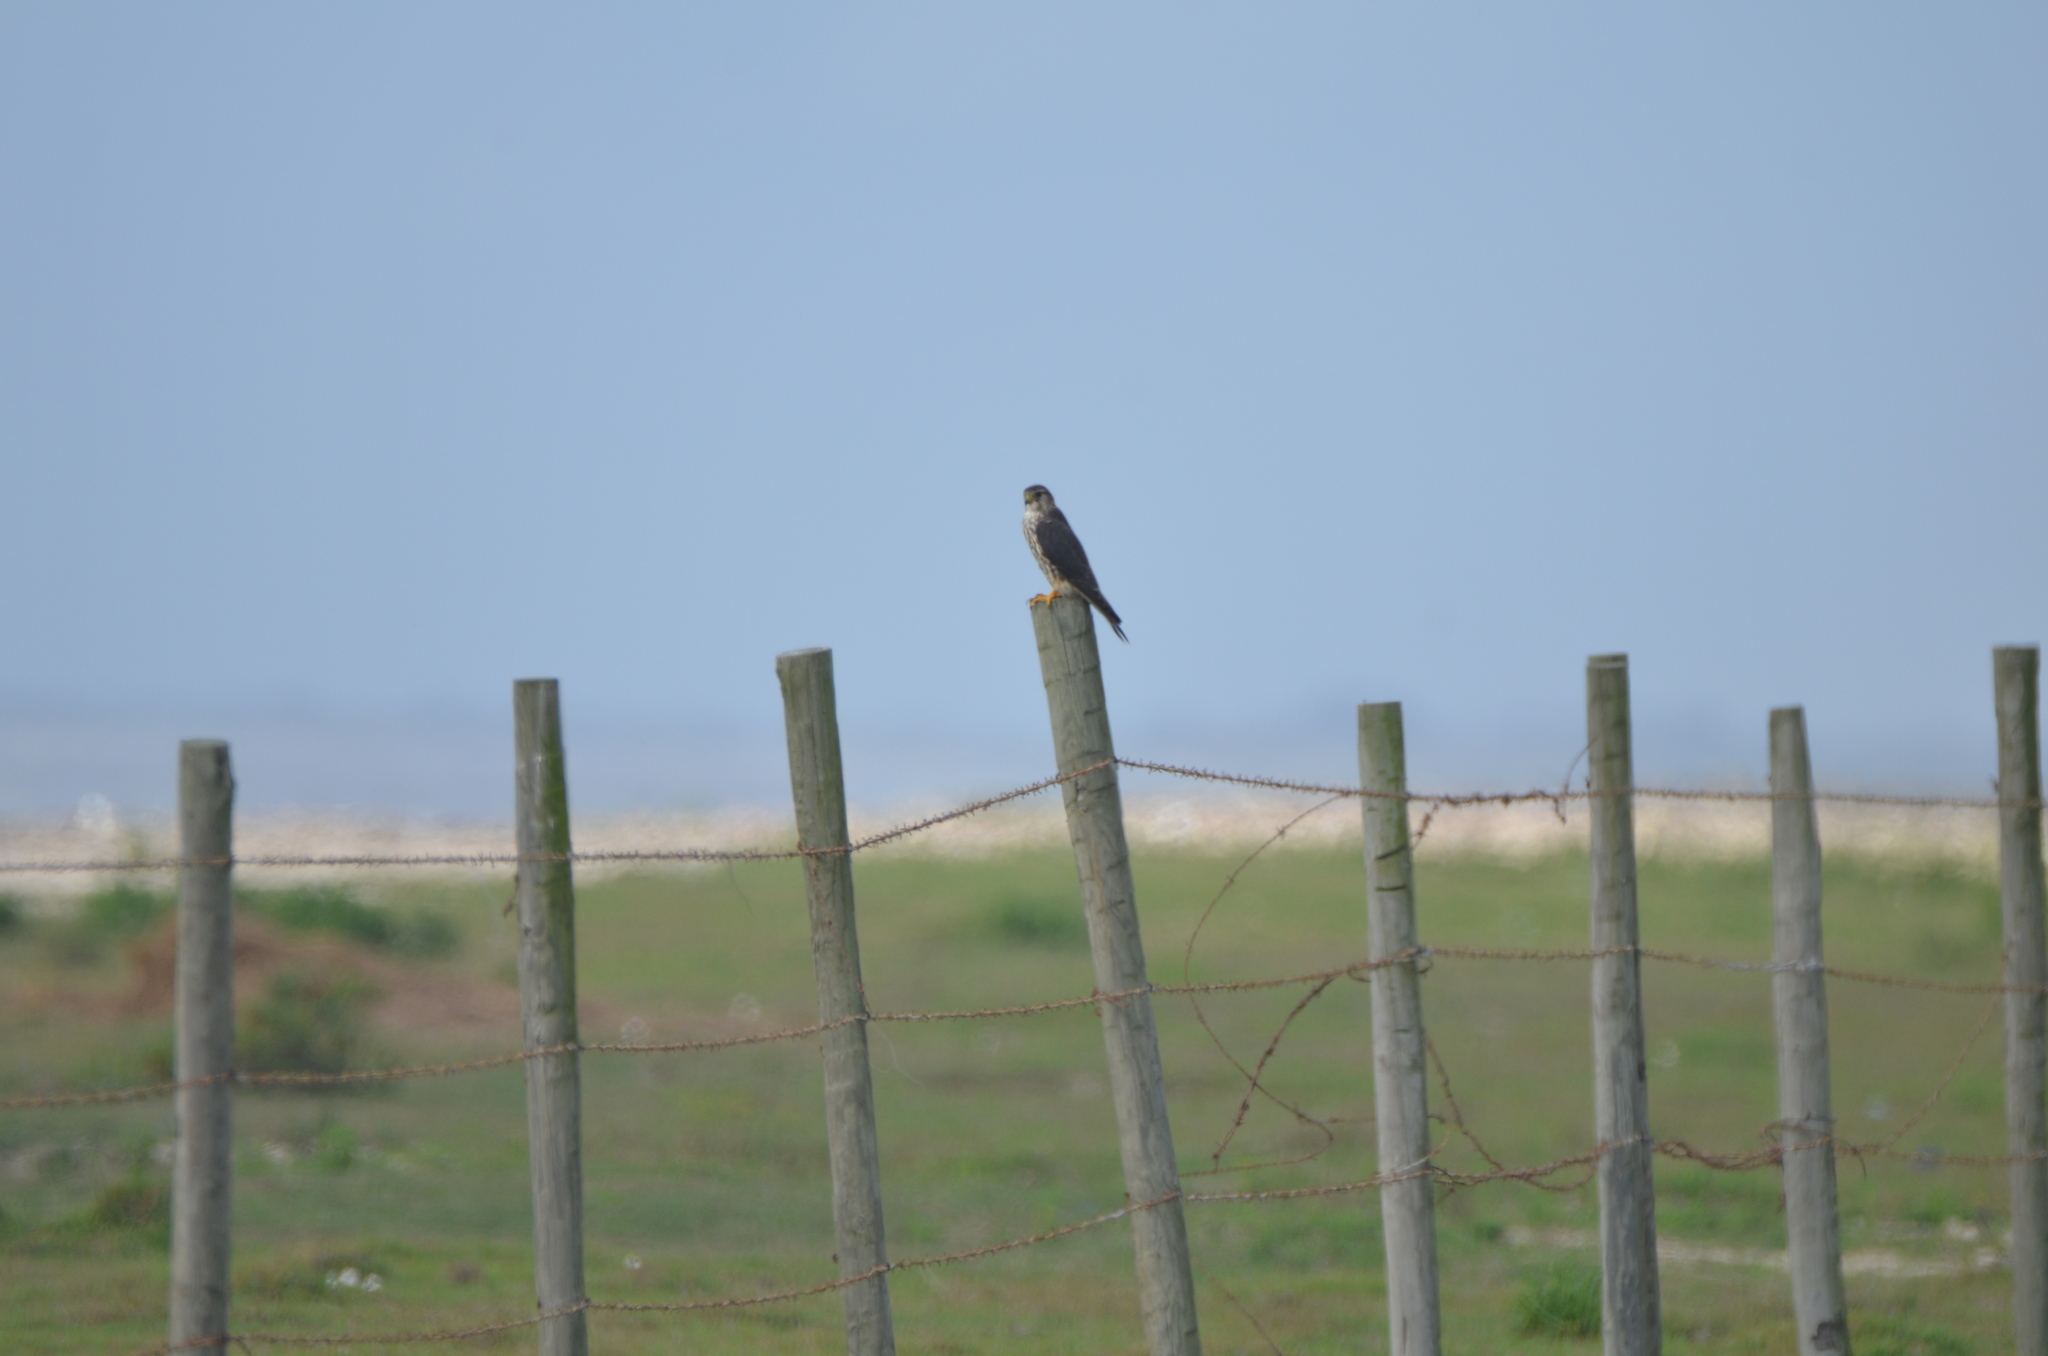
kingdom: Animalia
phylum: Chordata
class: Aves
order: Falconiformes
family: Falconidae
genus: Falco
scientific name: Falco columbarius
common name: Merlin
